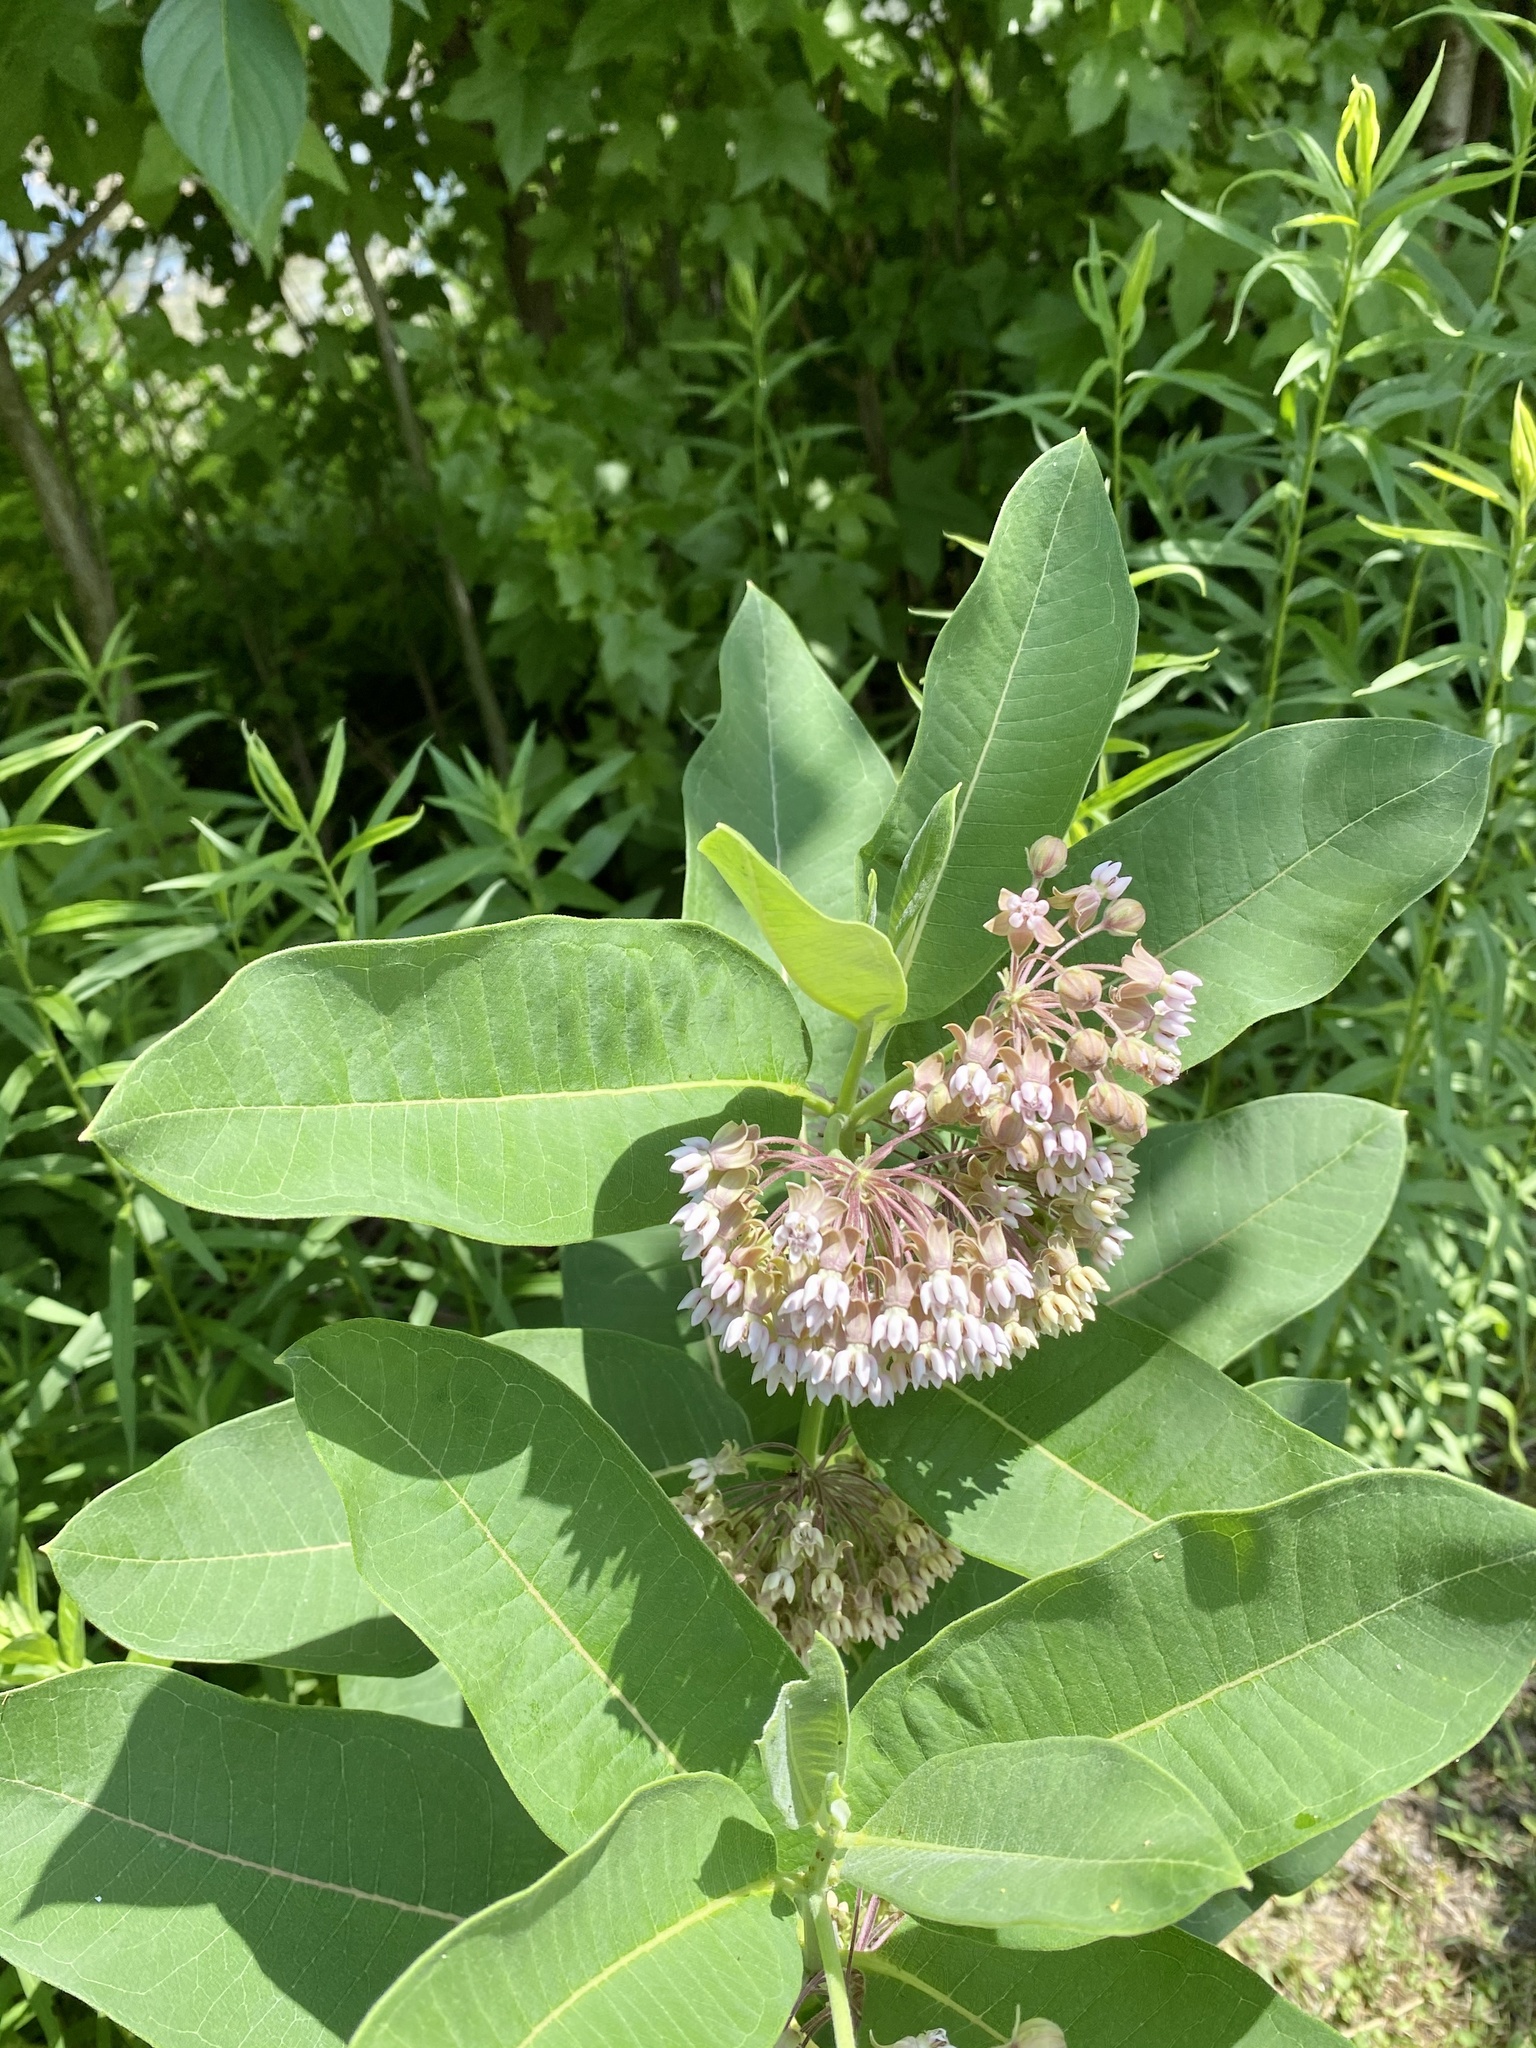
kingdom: Plantae
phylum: Tracheophyta
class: Magnoliopsida
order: Gentianales
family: Apocynaceae
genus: Asclepias
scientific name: Asclepias syriaca
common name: Common milkweed
